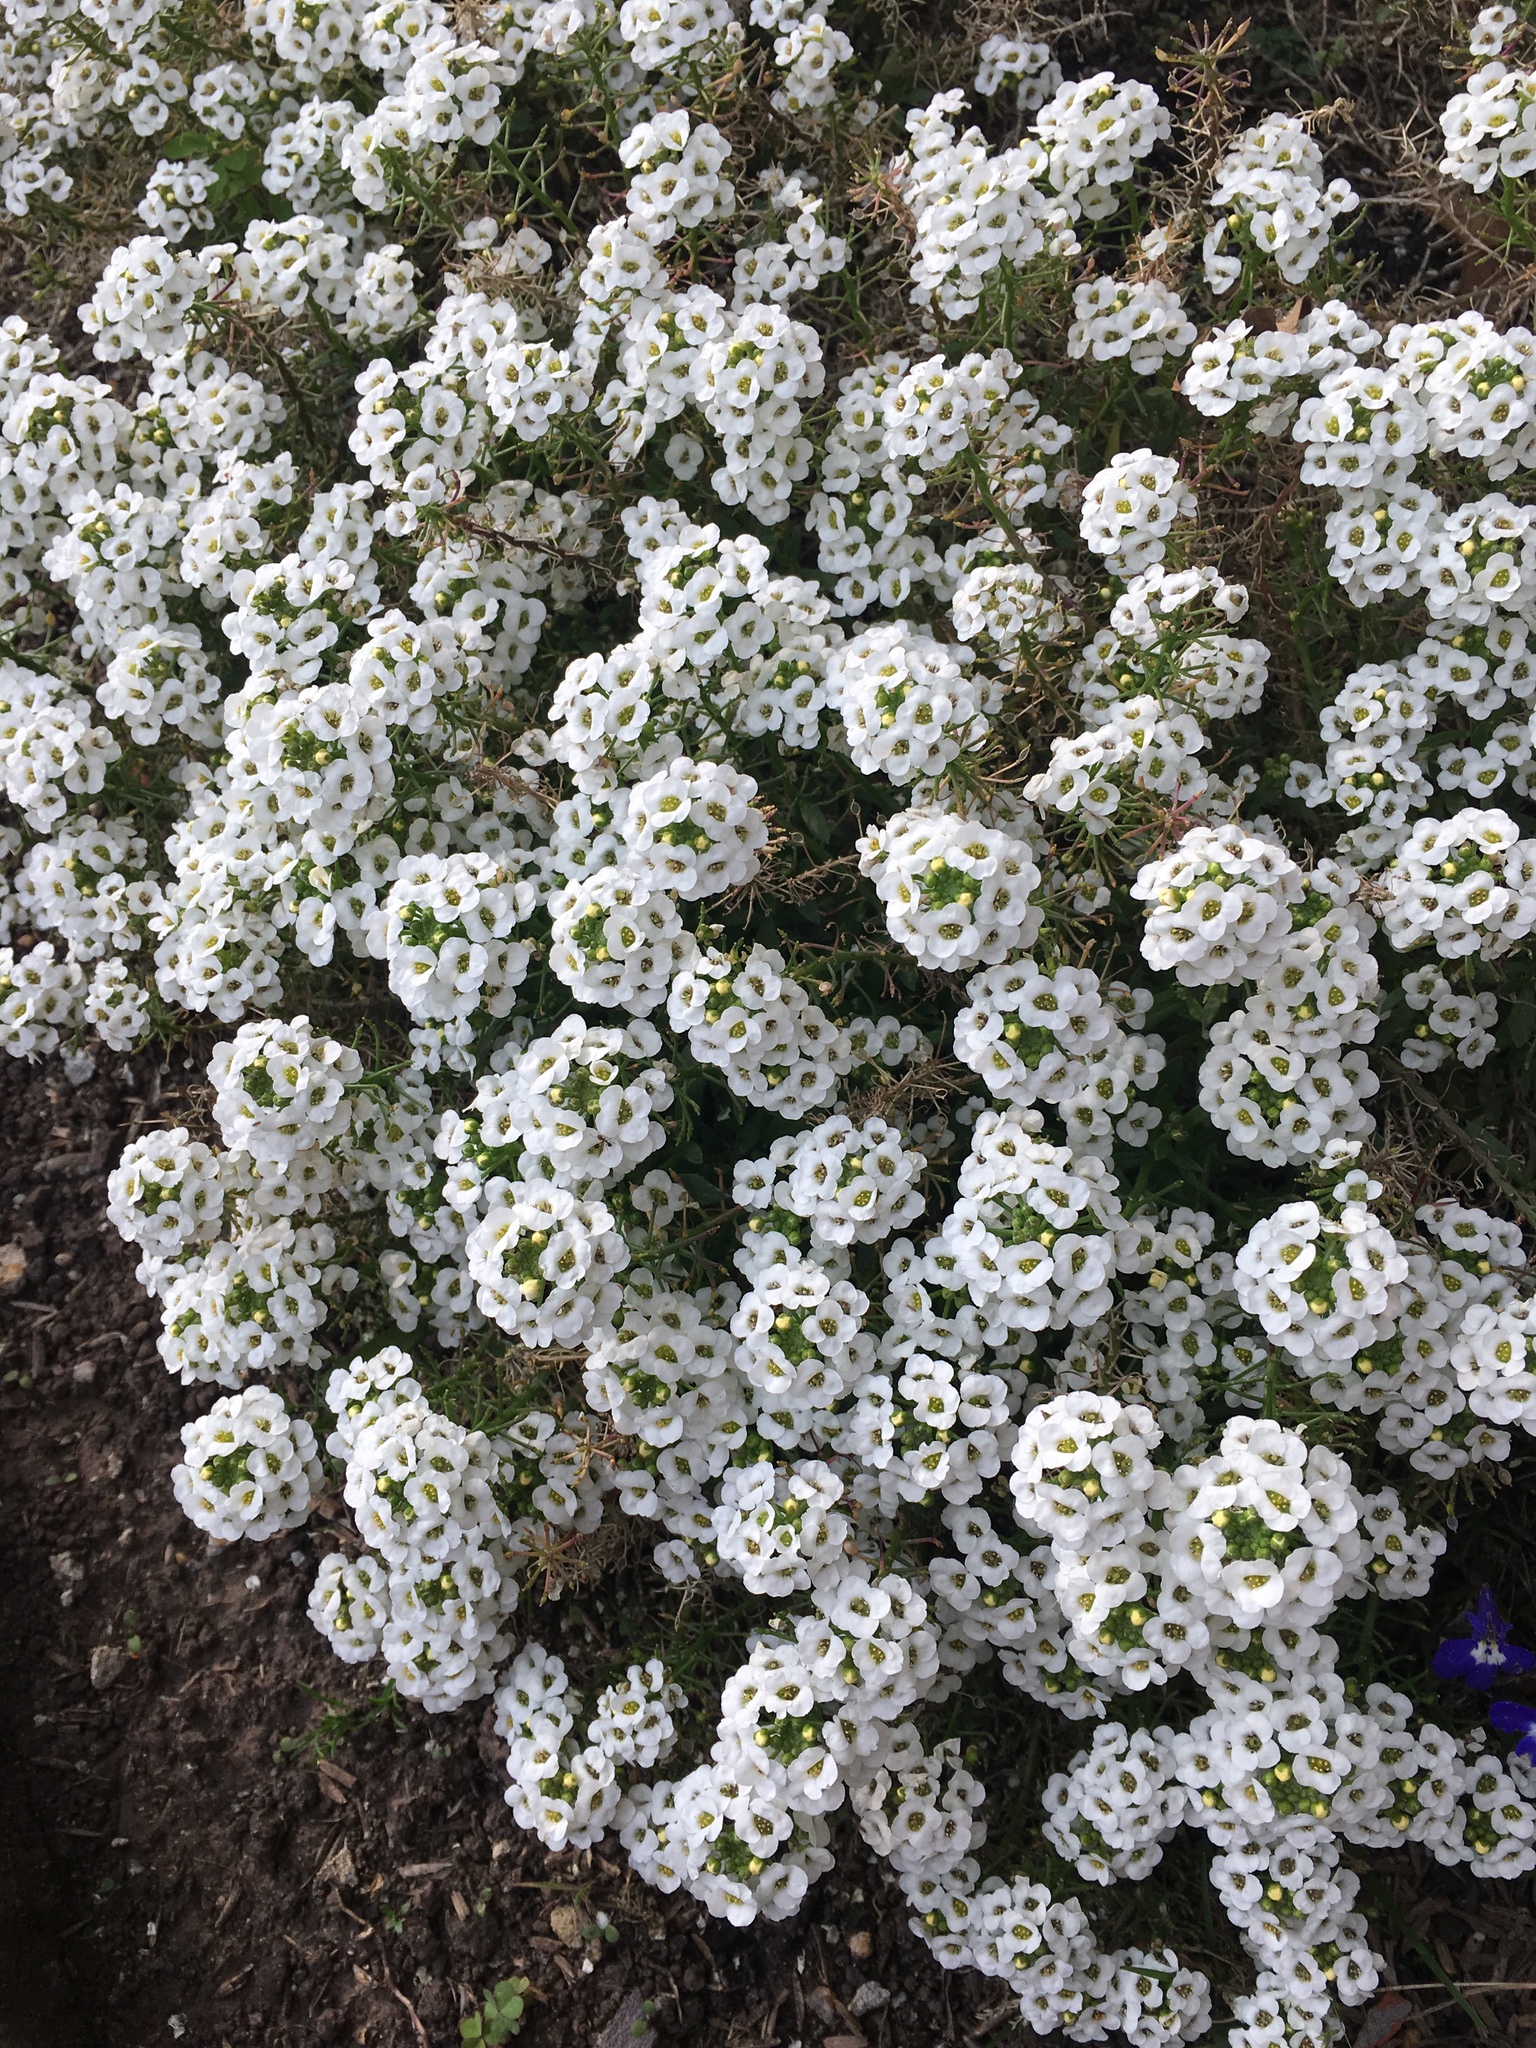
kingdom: Plantae
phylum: Tracheophyta
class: Magnoliopsida
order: Brassicales
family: Brassicaceae
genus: Lobularia
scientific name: Lobularia maritima
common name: Sweet alison
